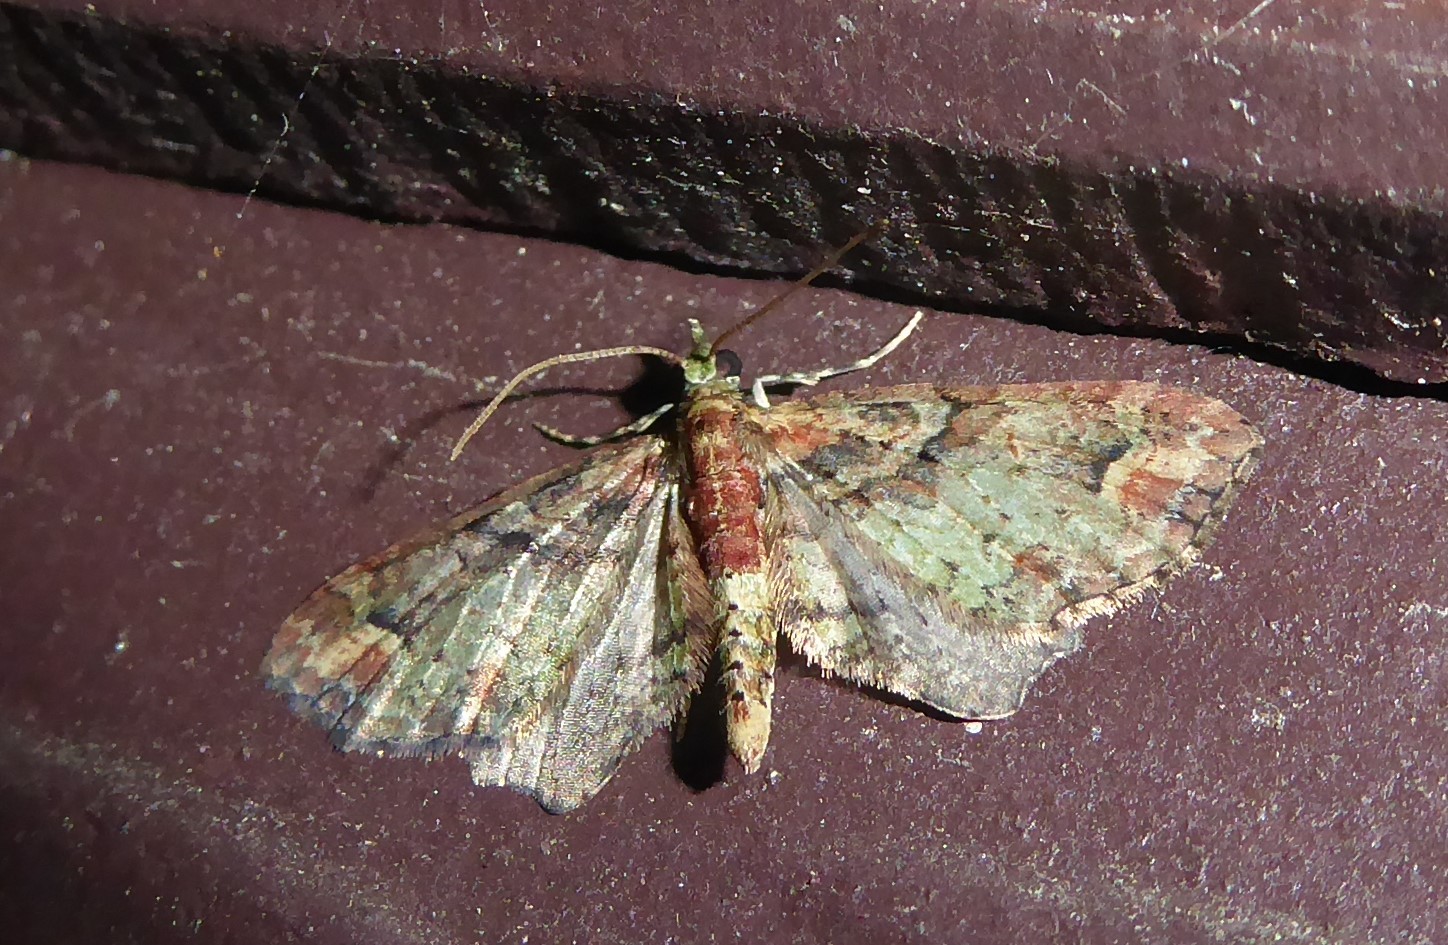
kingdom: Animalia
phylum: Arthropoda
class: Insecta
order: Lepidoptera
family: Geometridae
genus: Idaea
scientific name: Idaea mutanda
